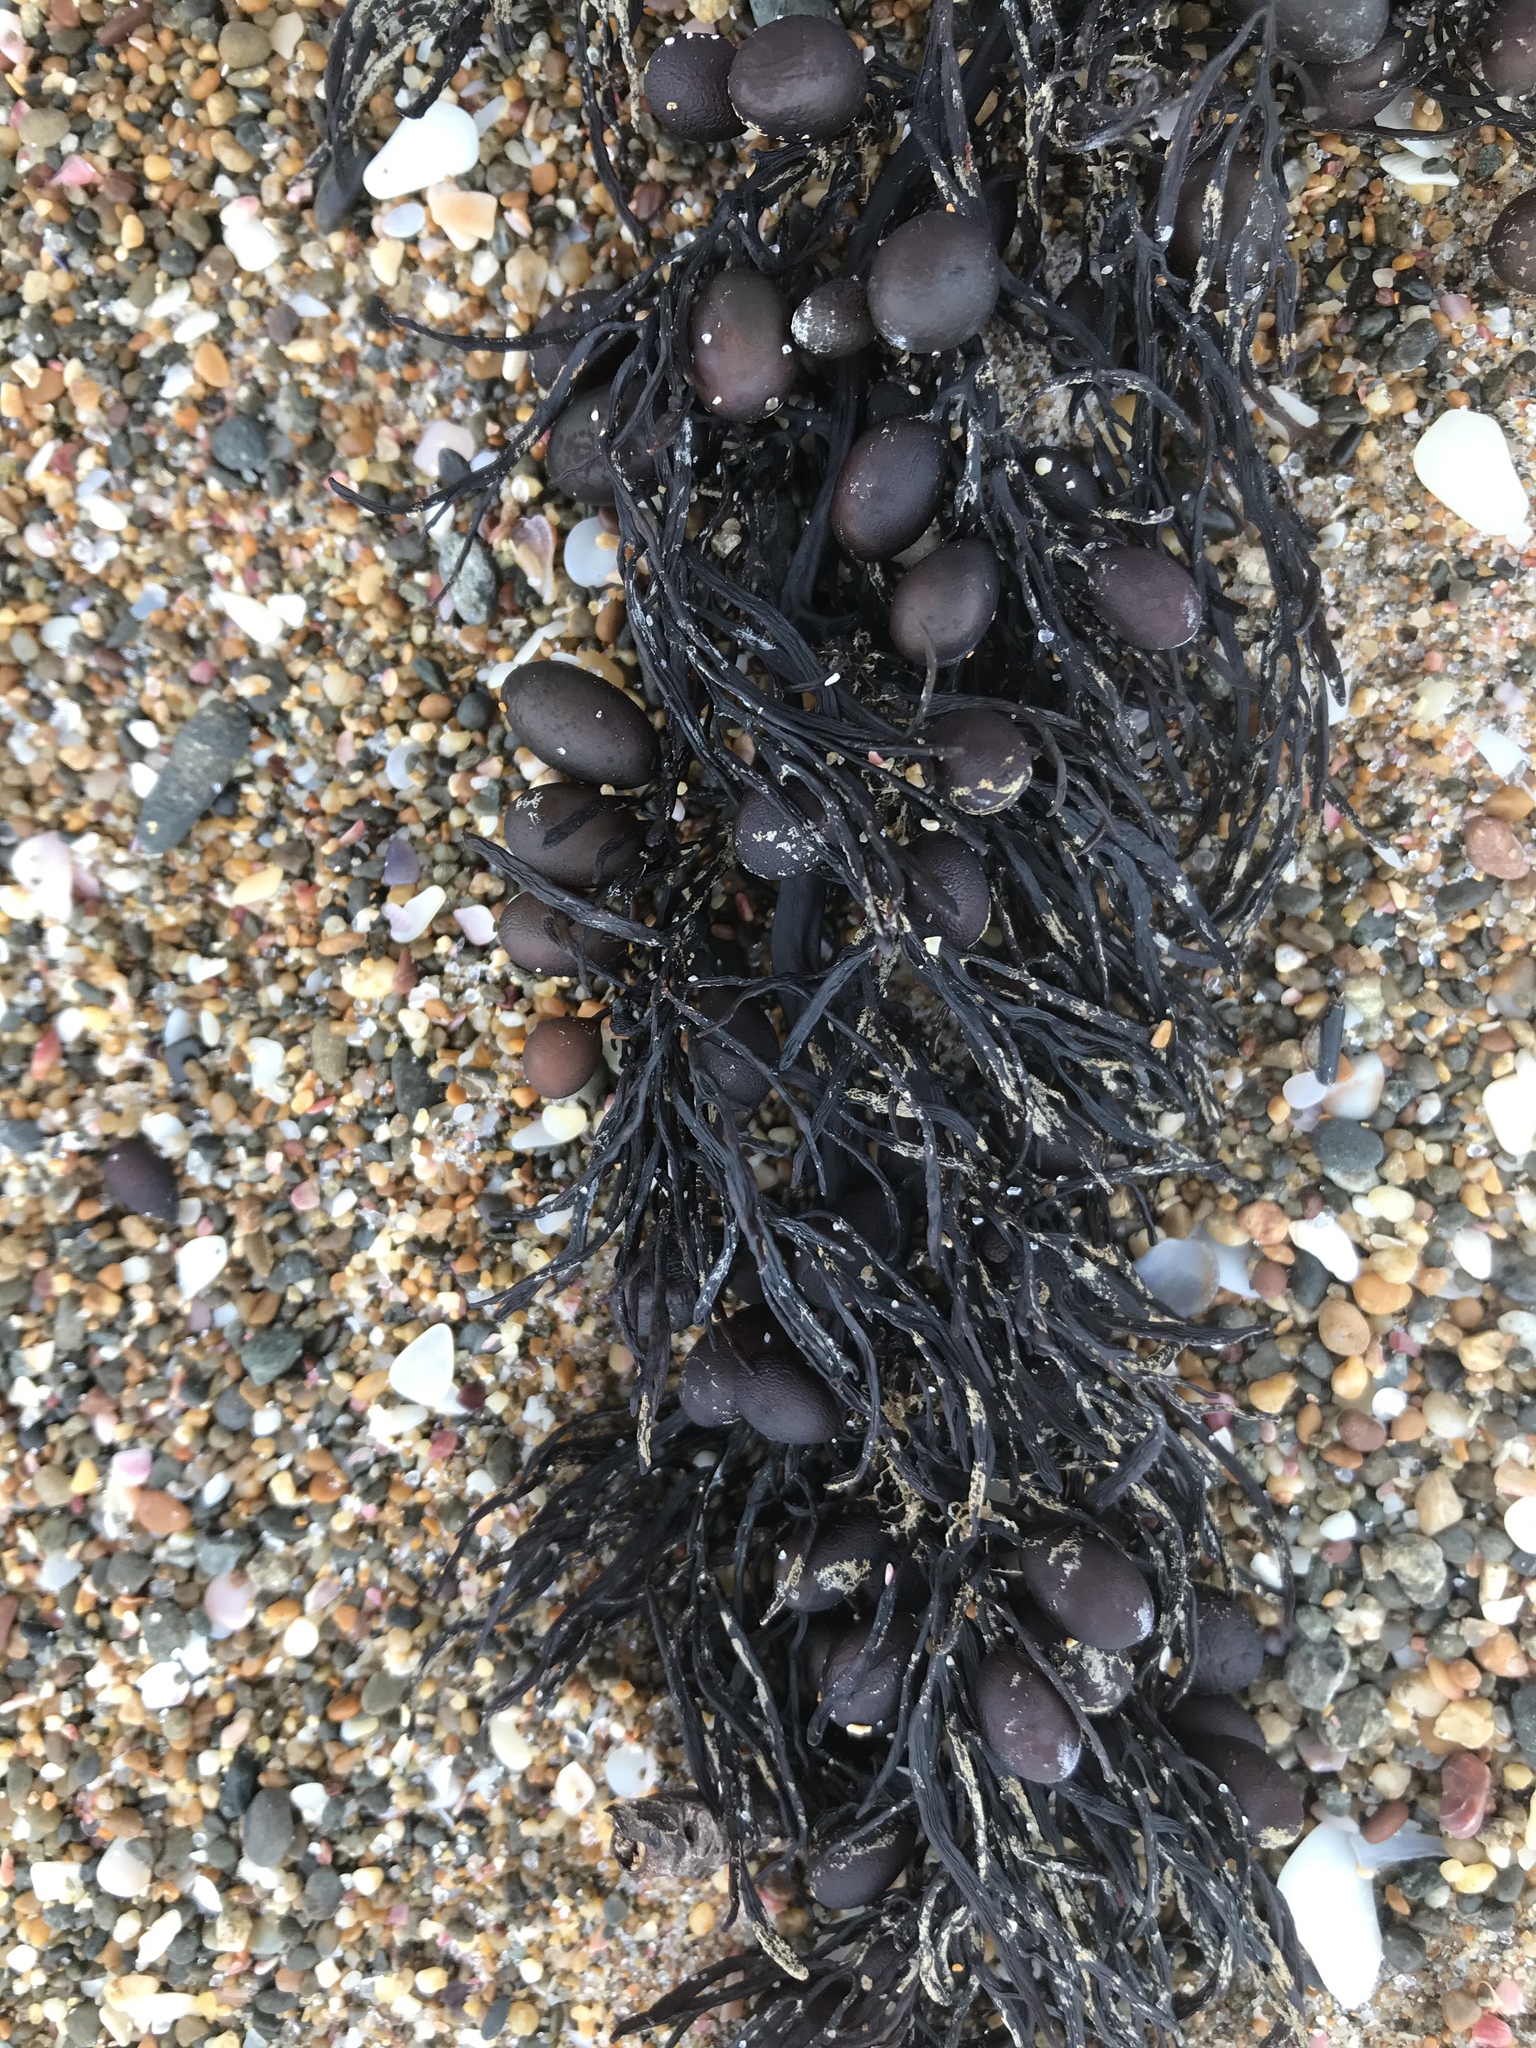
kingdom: Chromista
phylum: Ochrophyta
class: Phaeophyceae
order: Fucales
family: Sargassaceae
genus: Cystophora
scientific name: Cystophora retroflexa
